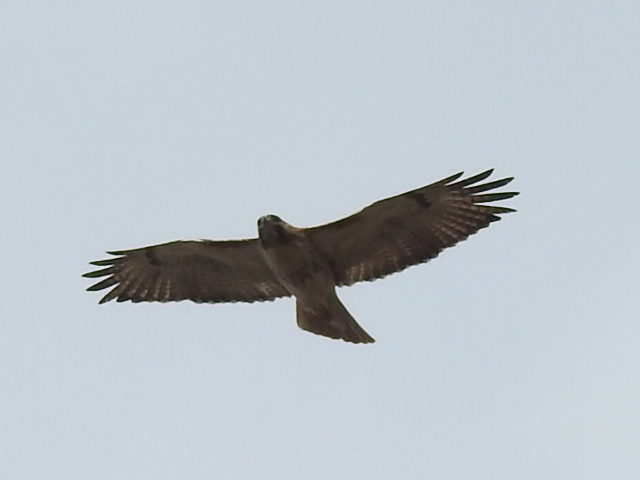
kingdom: Animalia
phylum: Chordata
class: Aves
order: Accipitriformes
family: Accipitridae
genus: Buteo
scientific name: Buteo jamaicensis
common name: Red-tailed hawk
